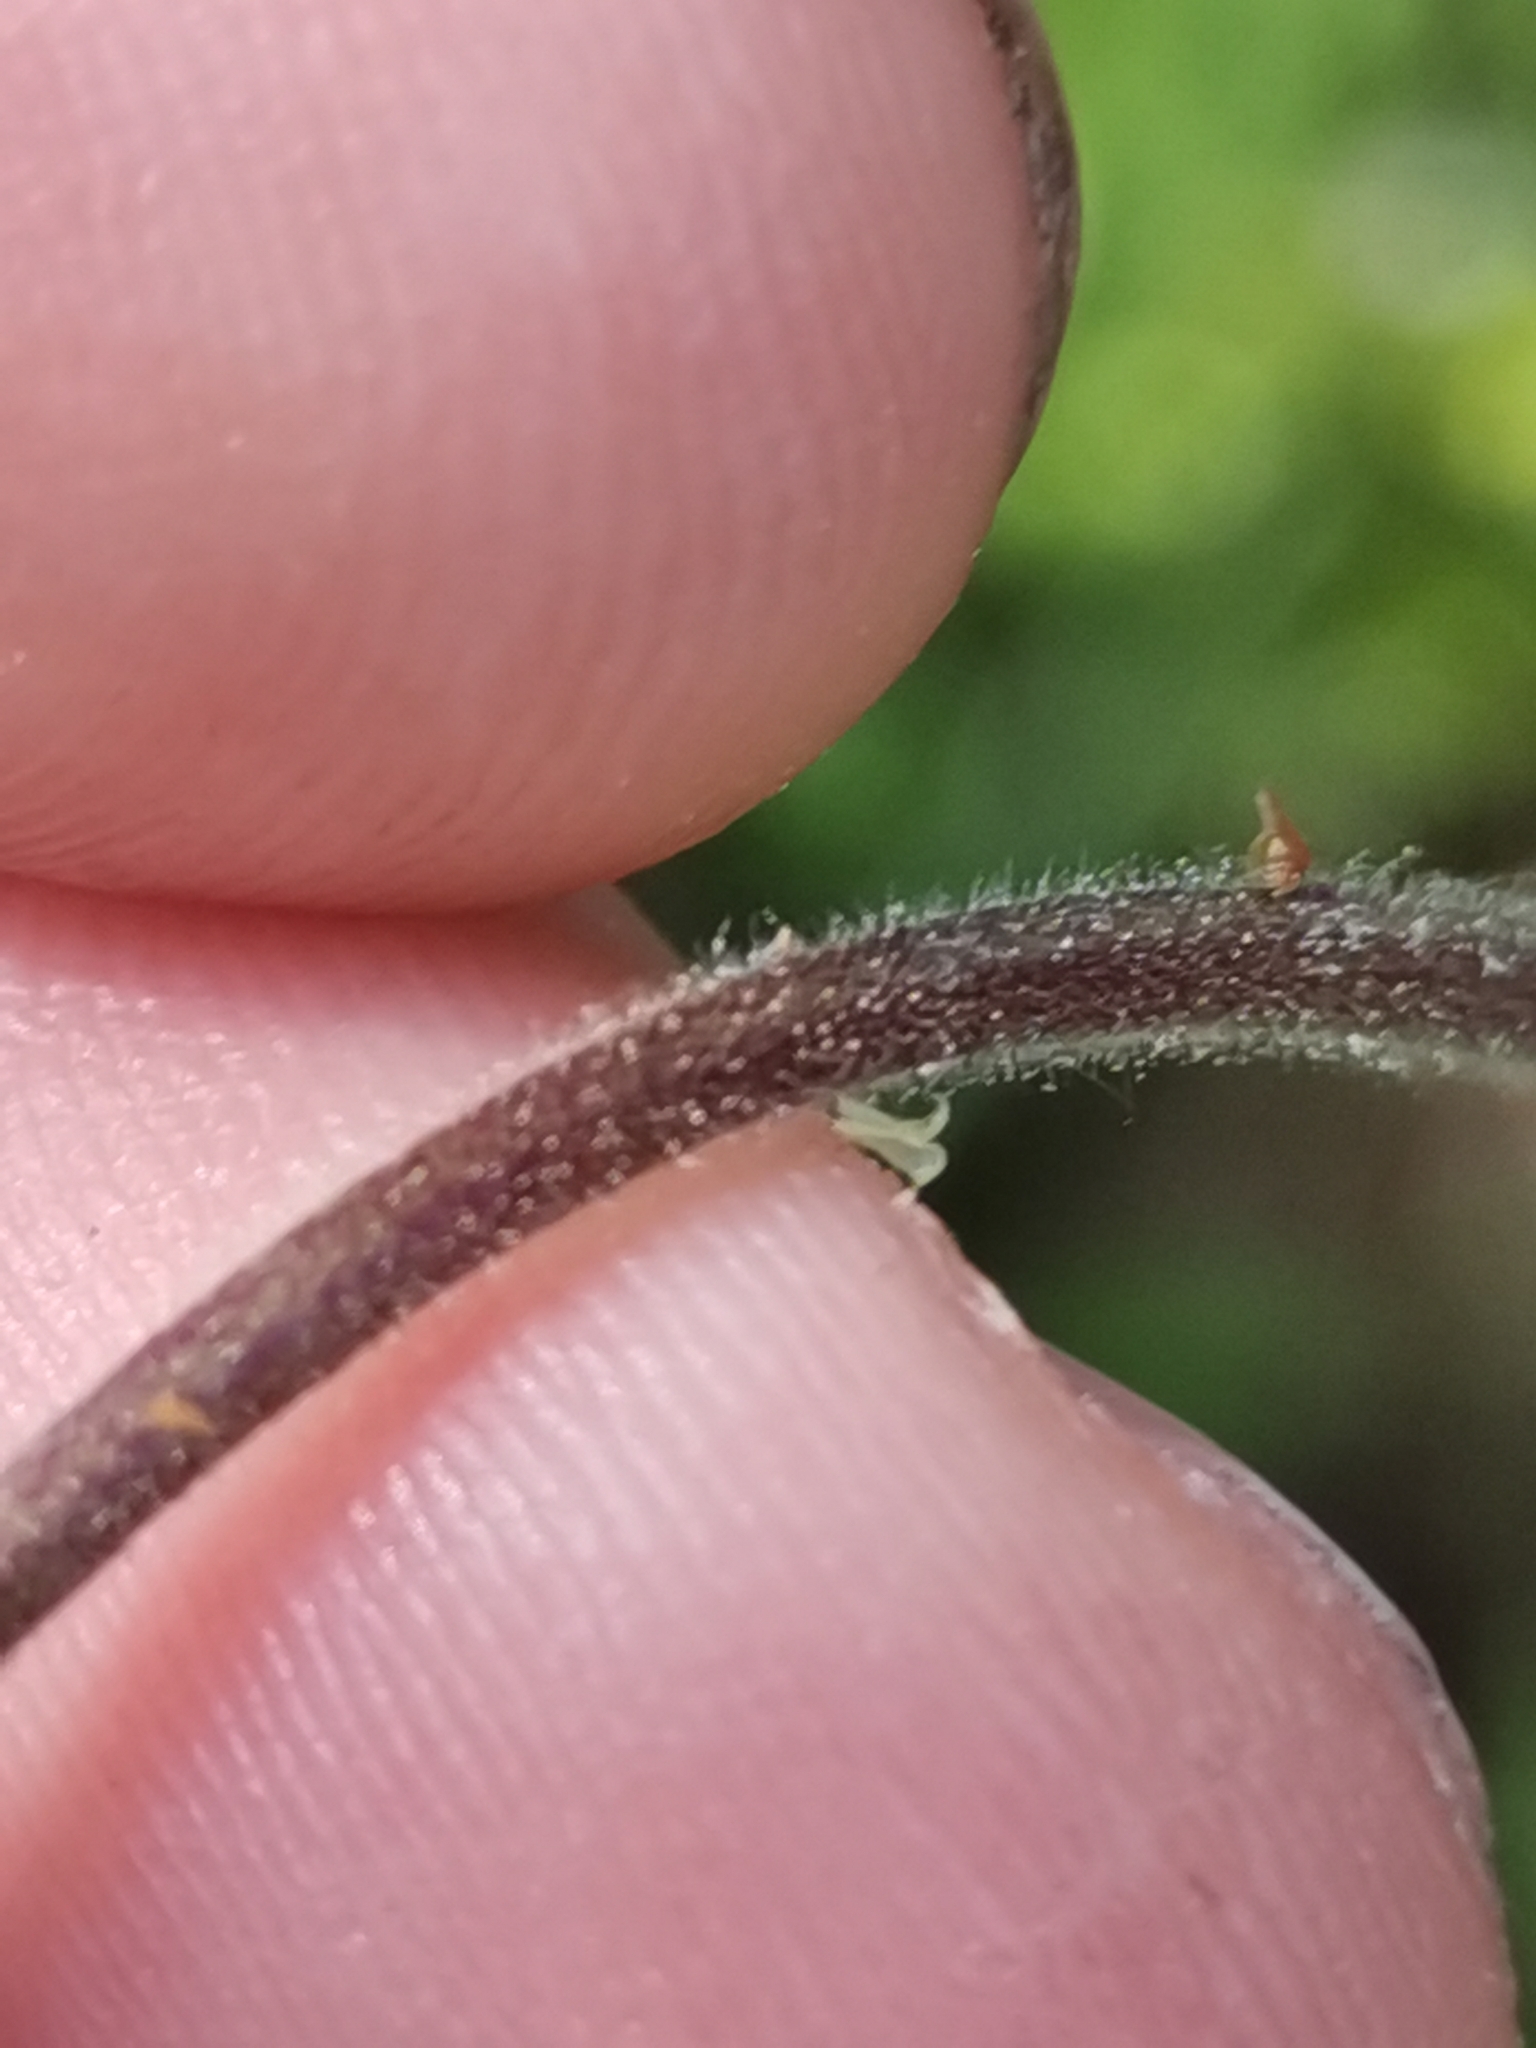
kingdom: Plantae
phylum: Tracheophyta
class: Magnoliopsida
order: Ranunculales
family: Ranunculaceae
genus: Aquilegia
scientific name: Aquilegia nigricans
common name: Bulgarian columbine
